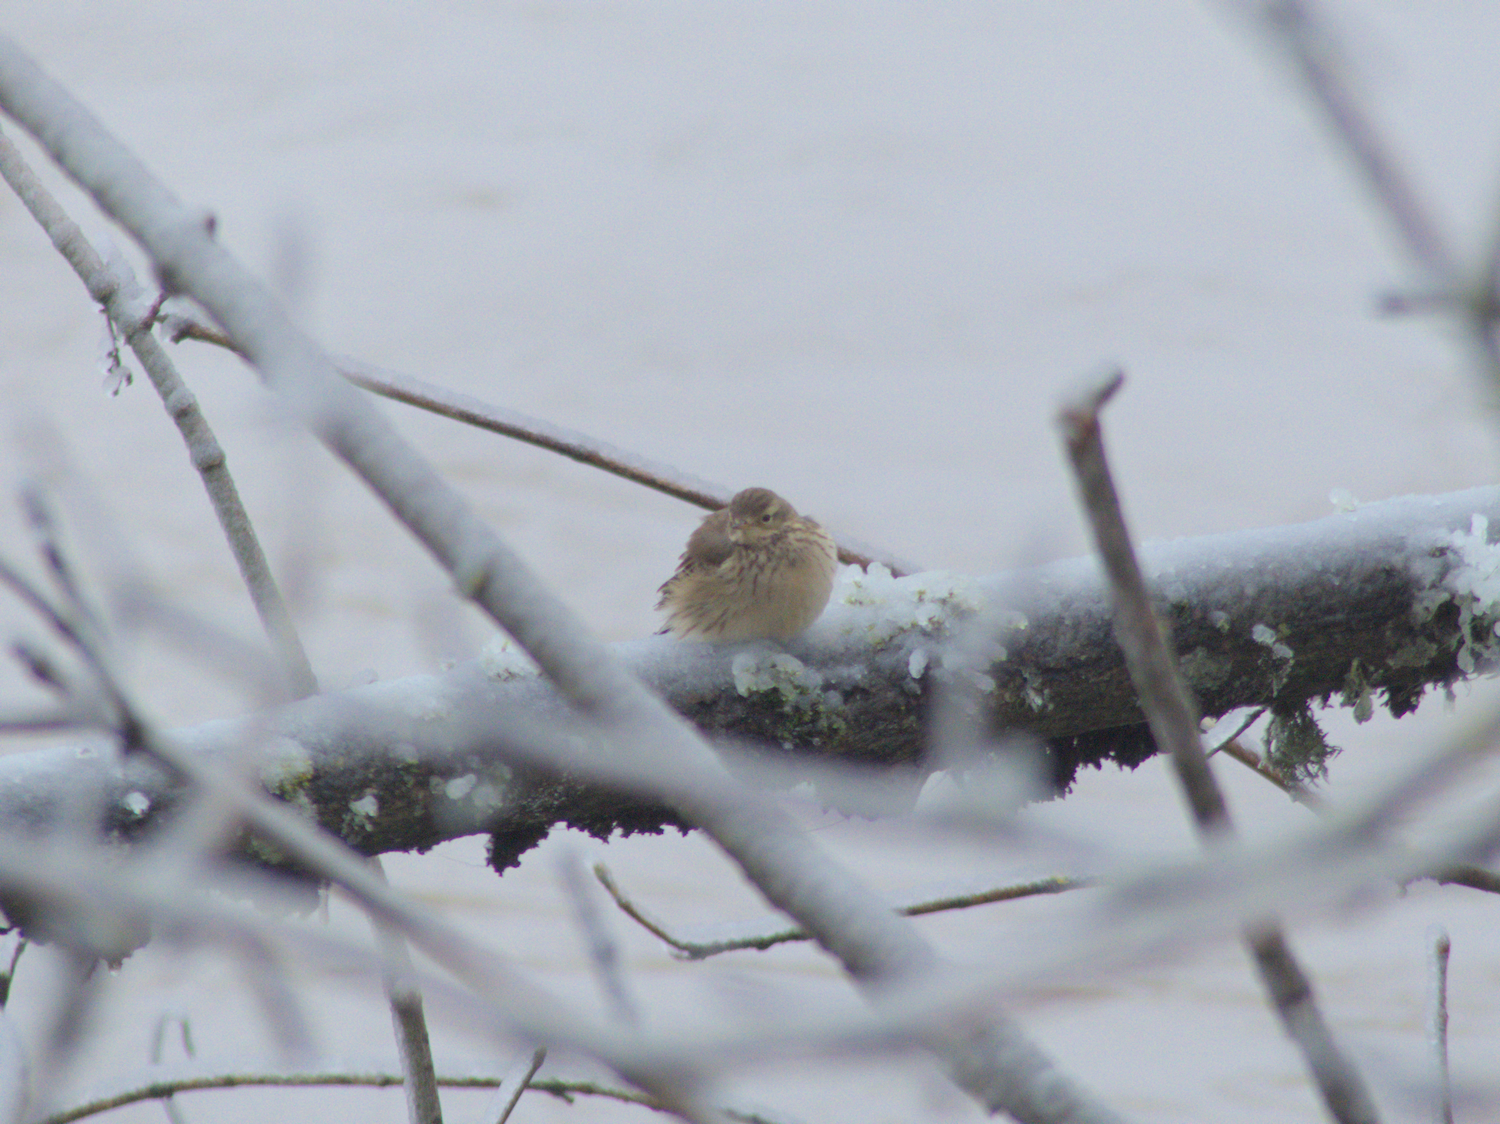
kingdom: Animalia
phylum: Chordata
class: Aves
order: Passeriformes
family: Motacillidae
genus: Anthus
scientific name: Anthus rubescens
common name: Buff-bellied pipit
